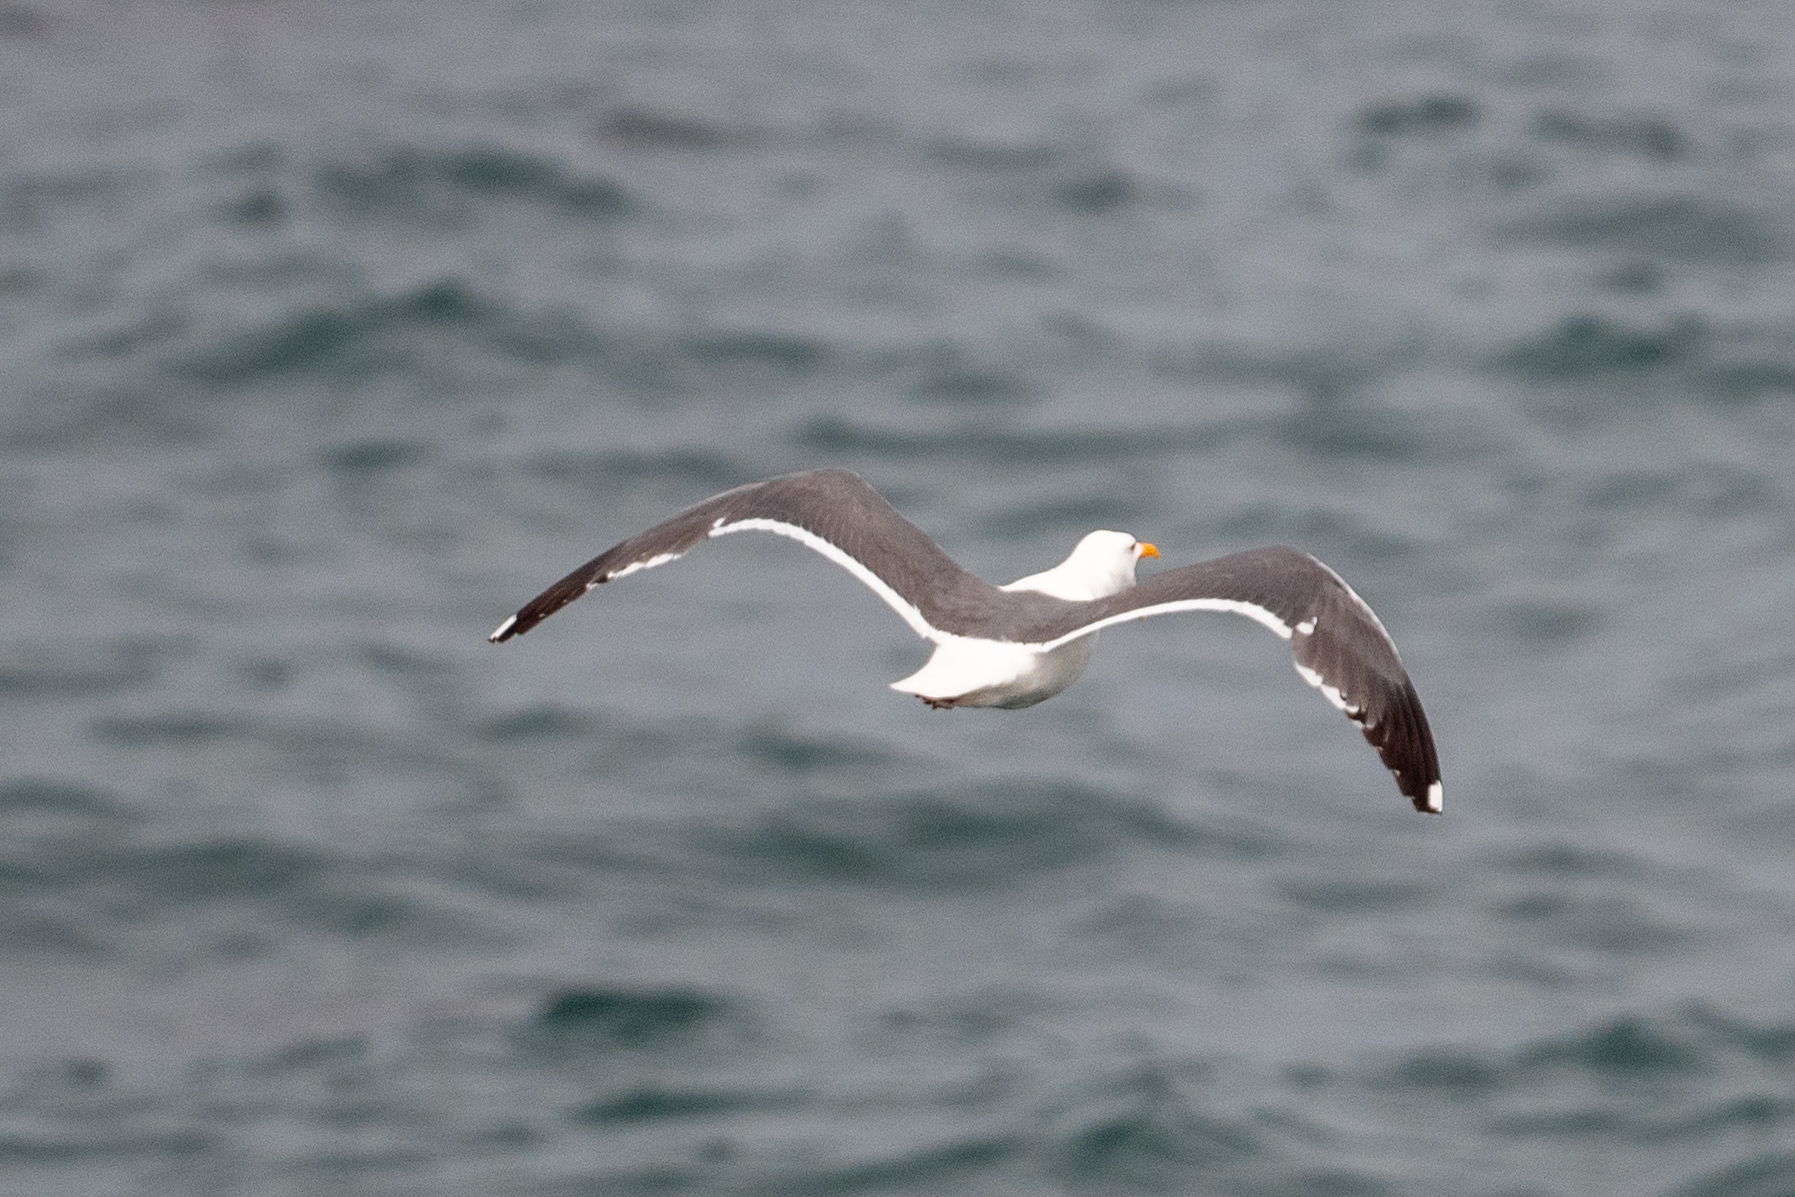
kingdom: Animalia
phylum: Chordata
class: Aves
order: Charadriiformes
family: Laridae
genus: Larus
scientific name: Larus occidentalis
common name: Western gull
